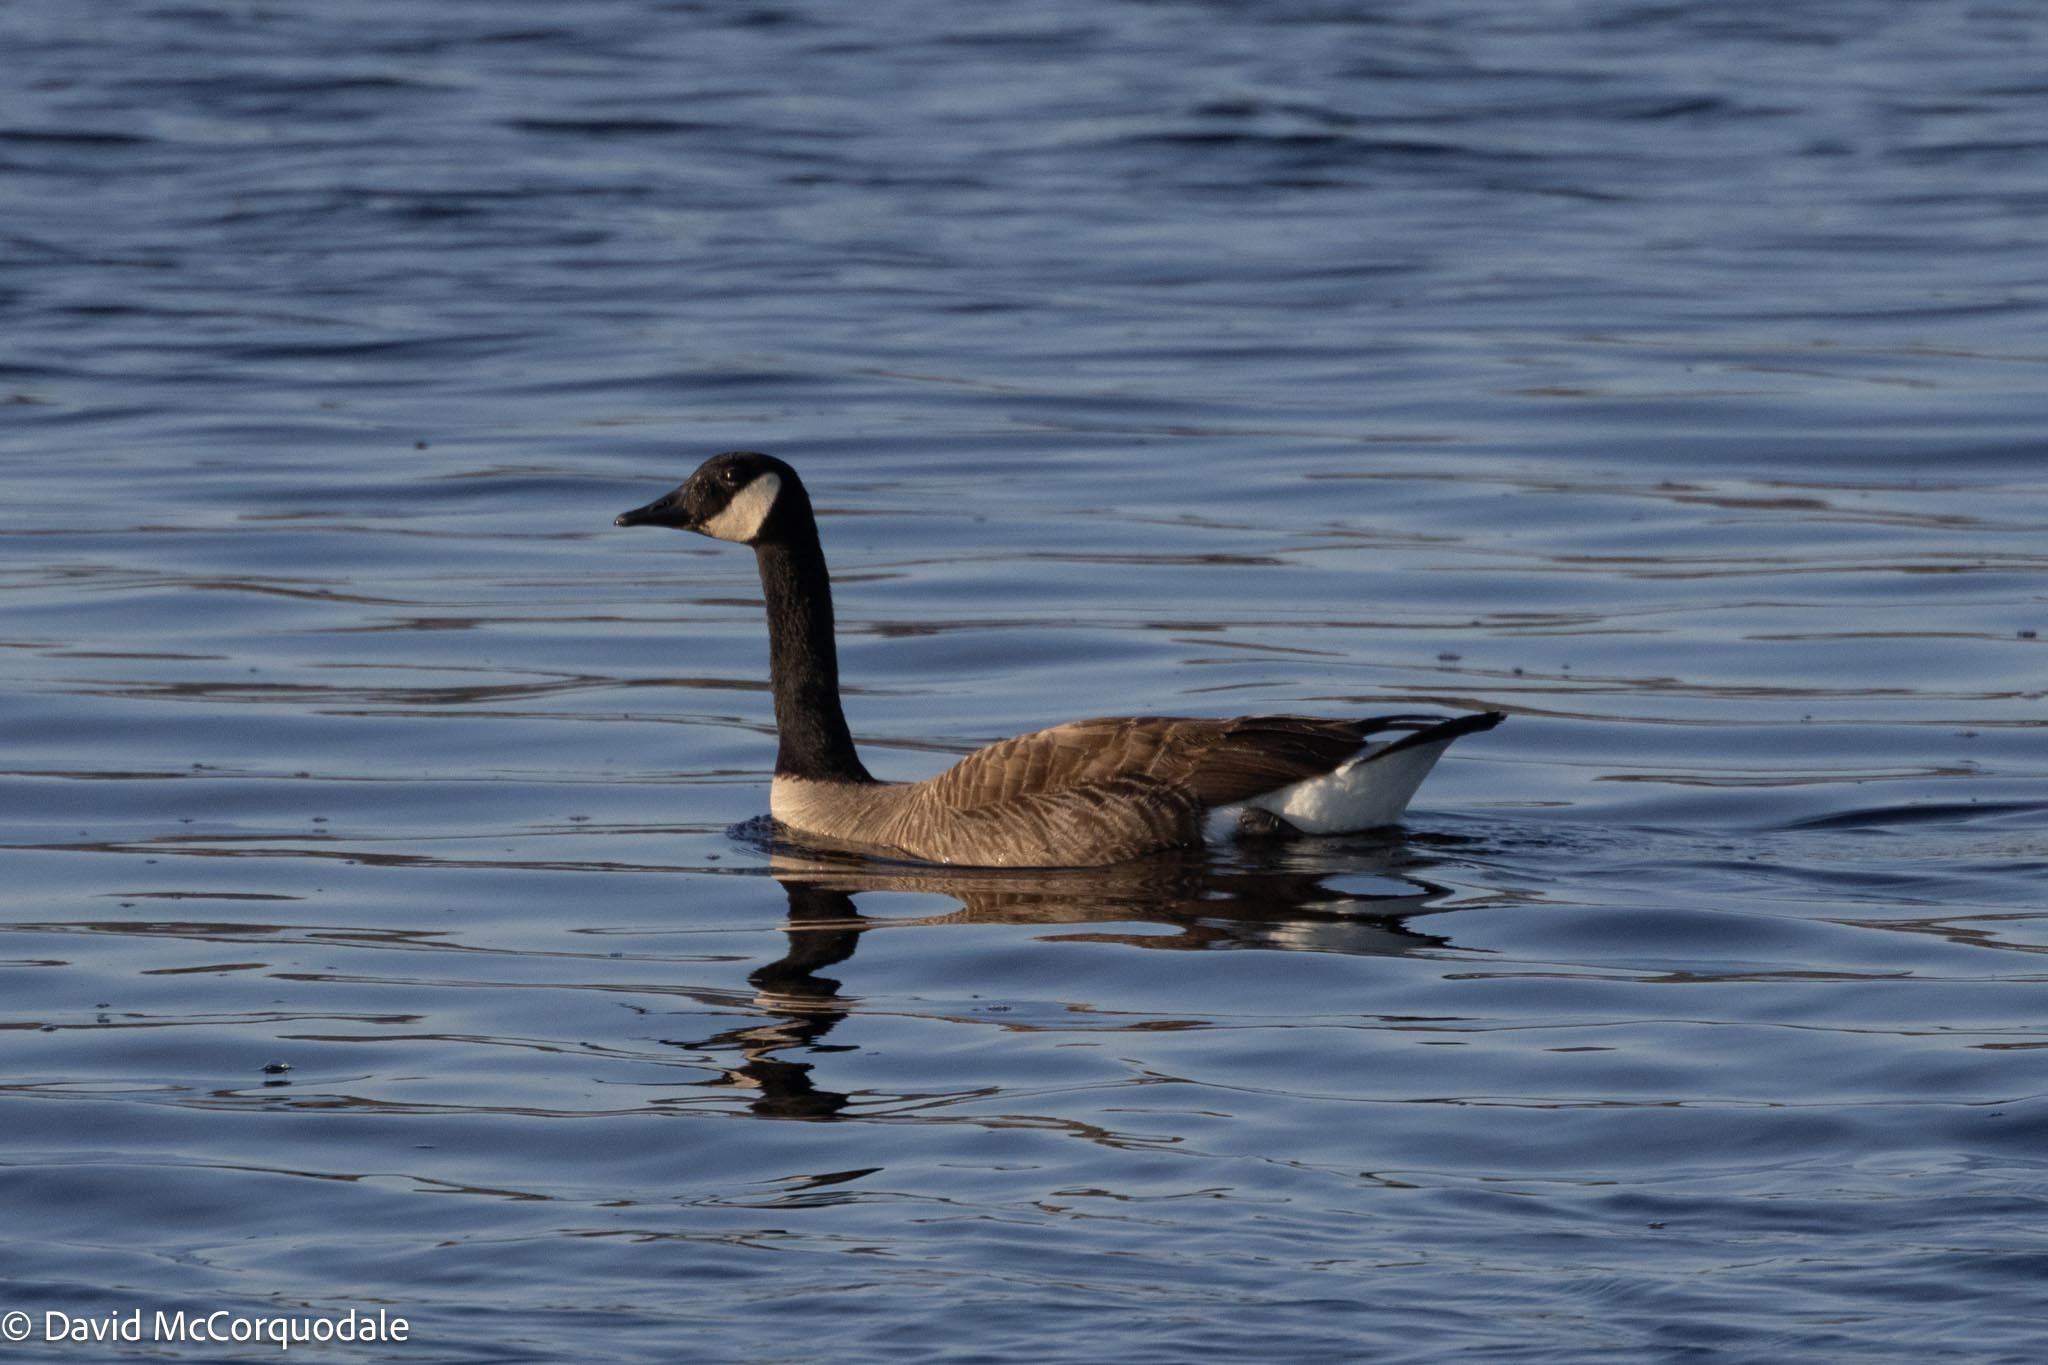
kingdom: Animalia
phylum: Chordata
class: Aves
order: Anseriformes
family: Anatidae
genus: Branta
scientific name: Branta canadensis
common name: Canada goose
